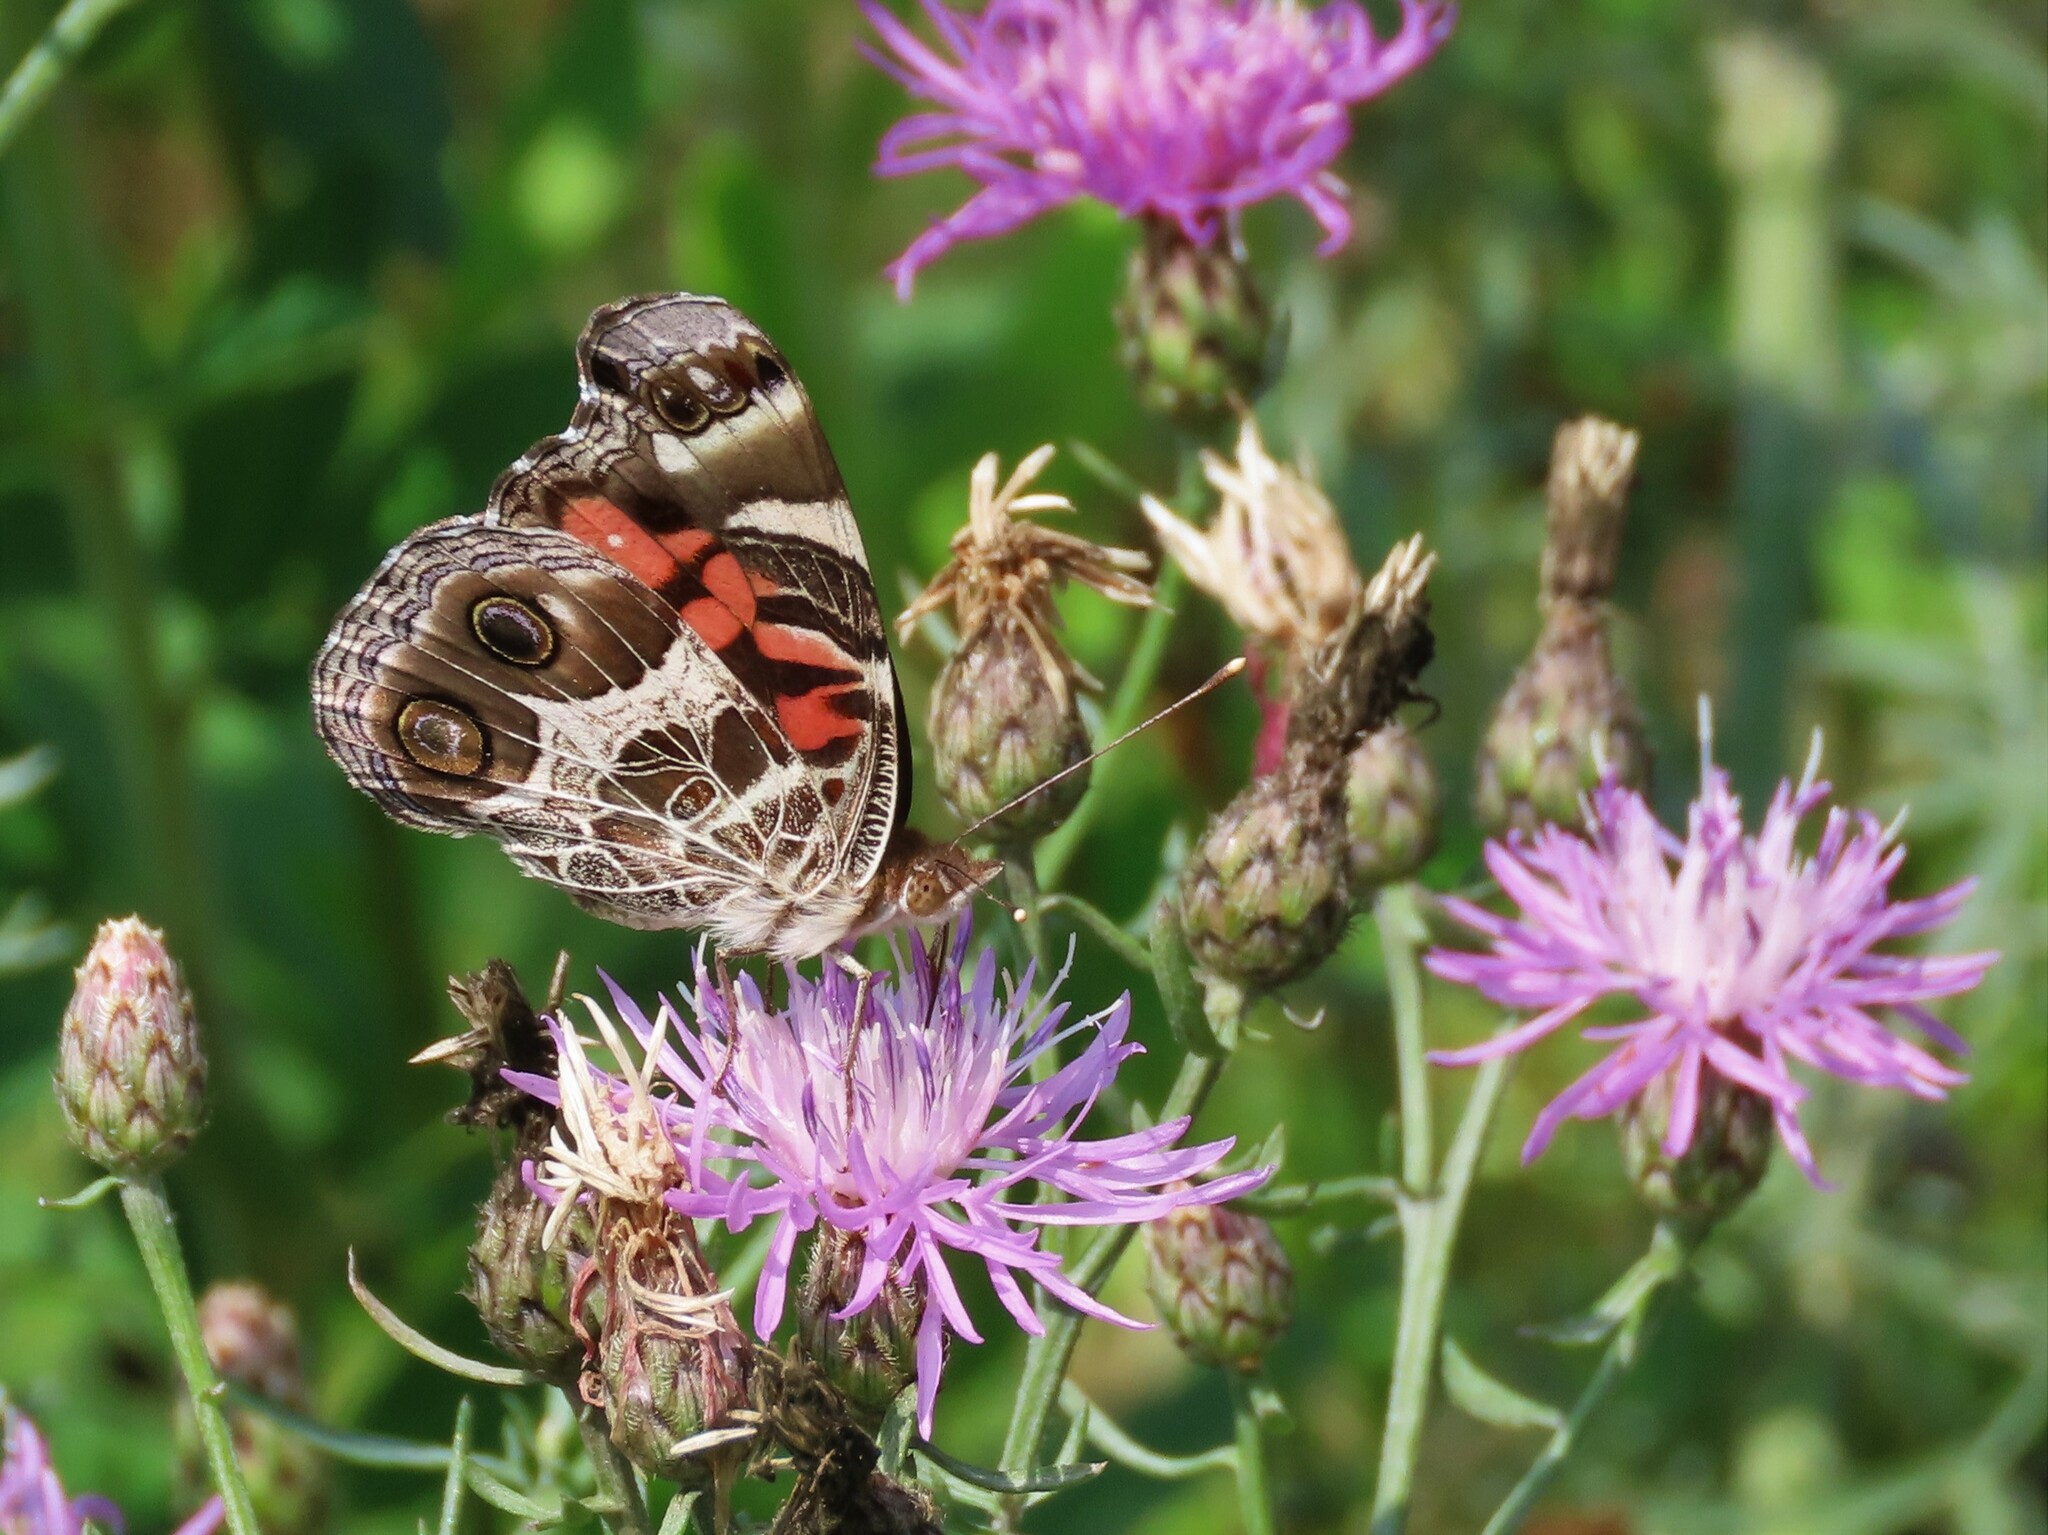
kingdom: Animalia
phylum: Arthropoda
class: Insecta
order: Lepidoptera
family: Nymphalidae
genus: Vanessa
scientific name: Vanessa virginiensis
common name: American lady
